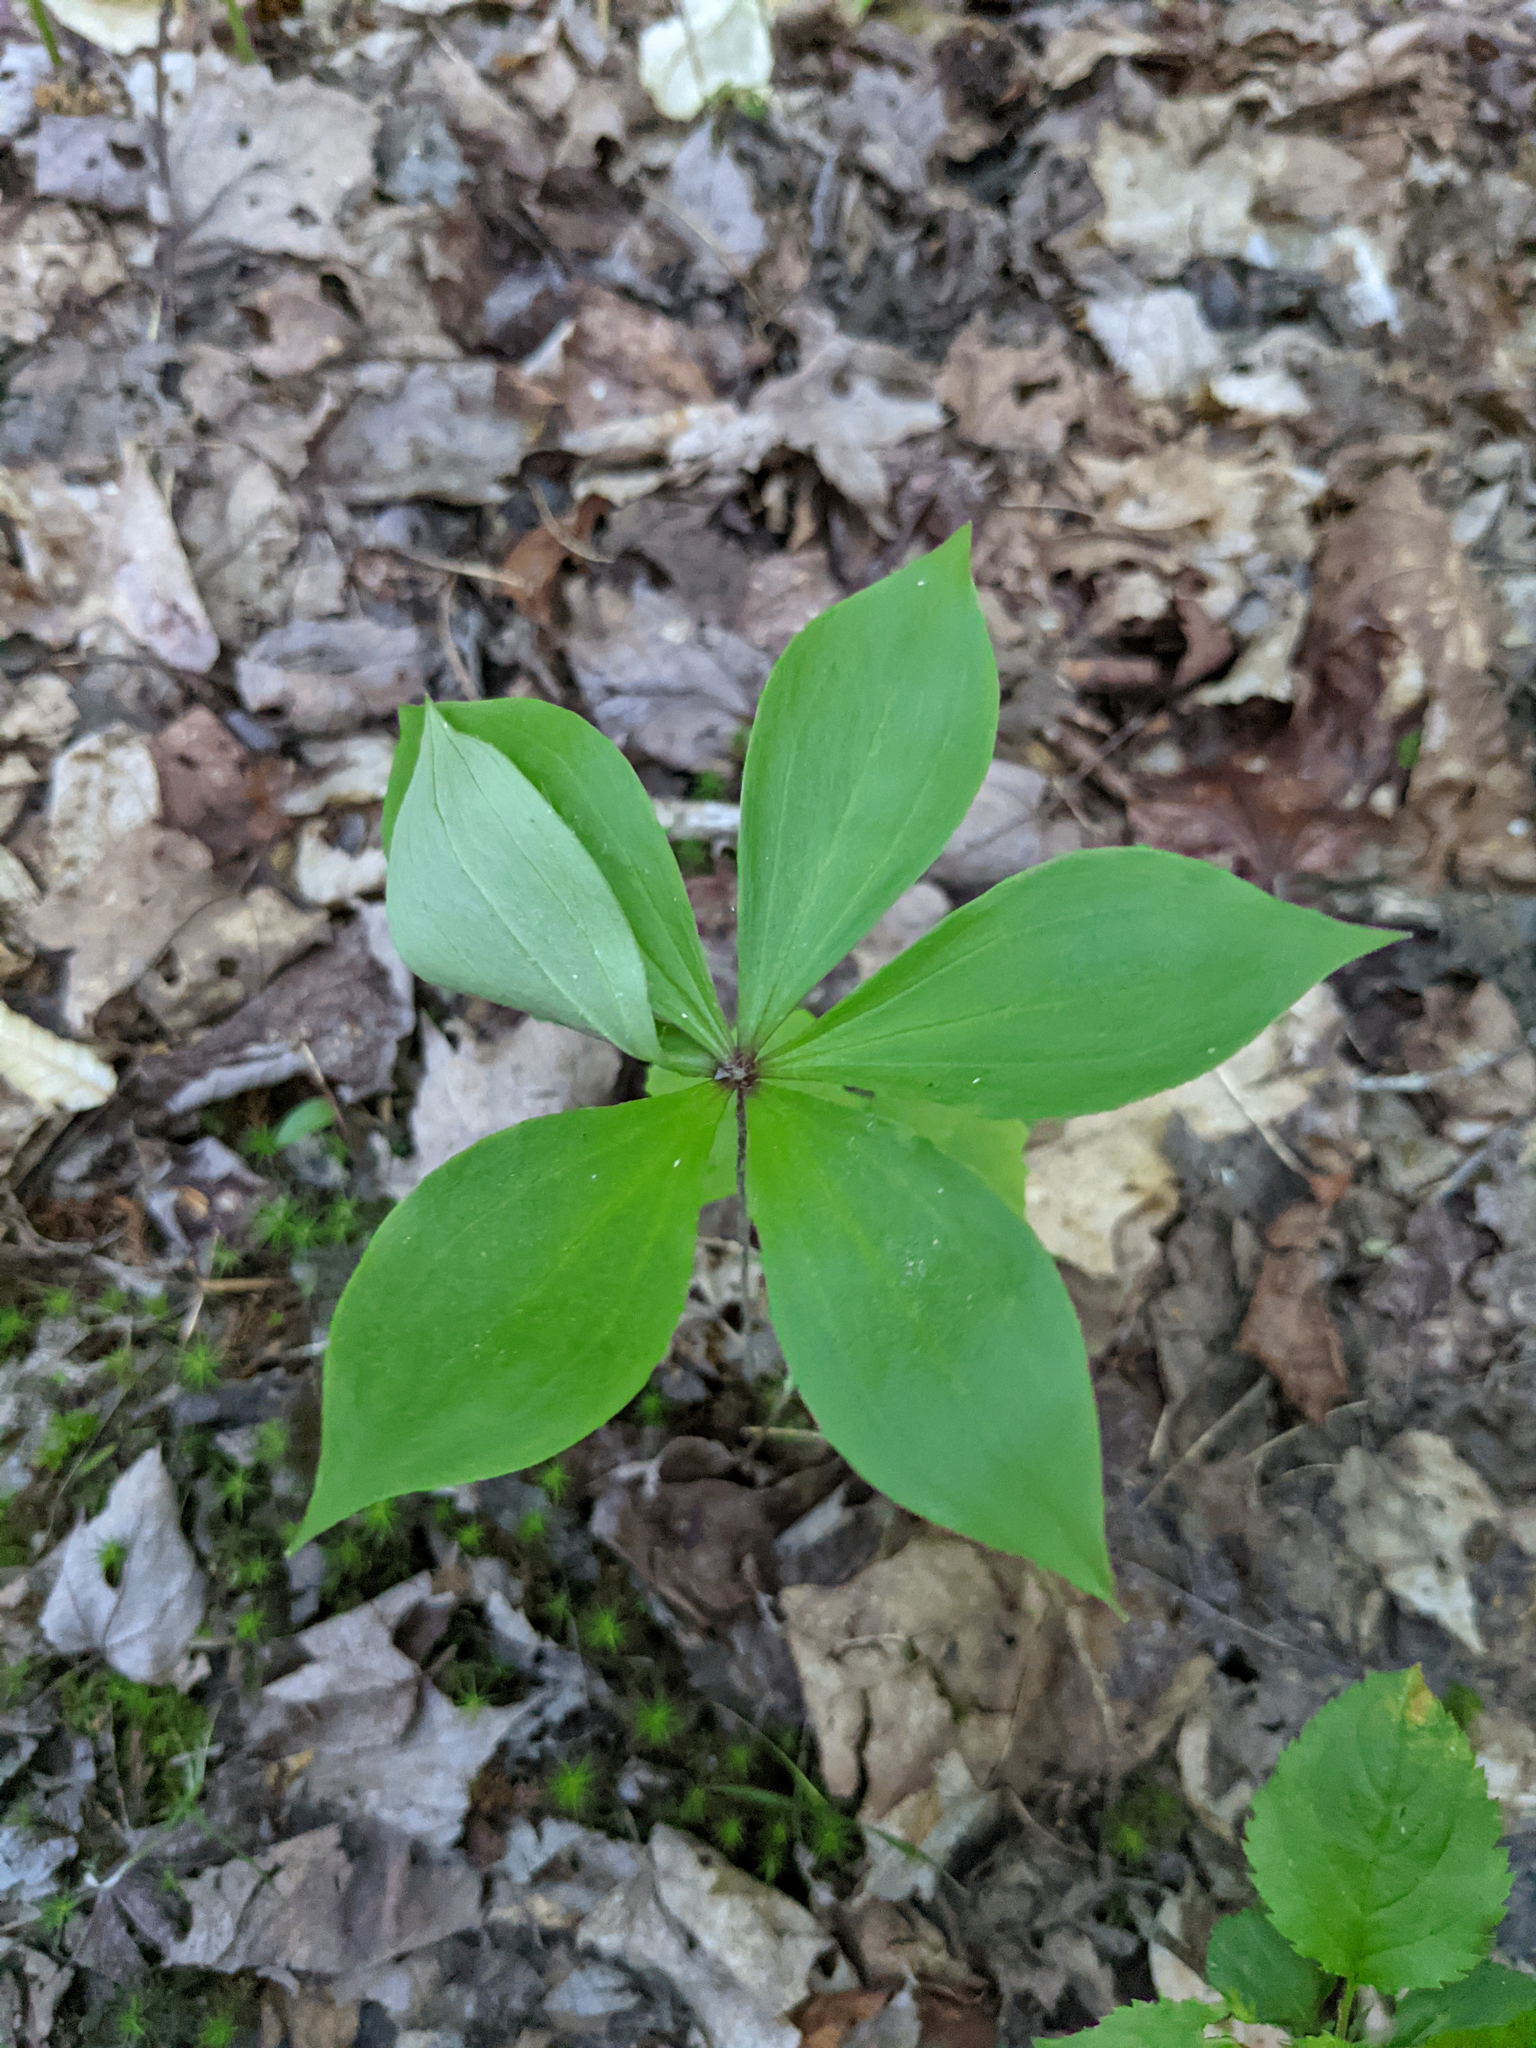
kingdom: Plantae
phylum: Tracheophyta
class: Liliopsida
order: Liliales
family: Liliaceae
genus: Medeola
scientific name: Medeola virginiana
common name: Indian cucumber-root
